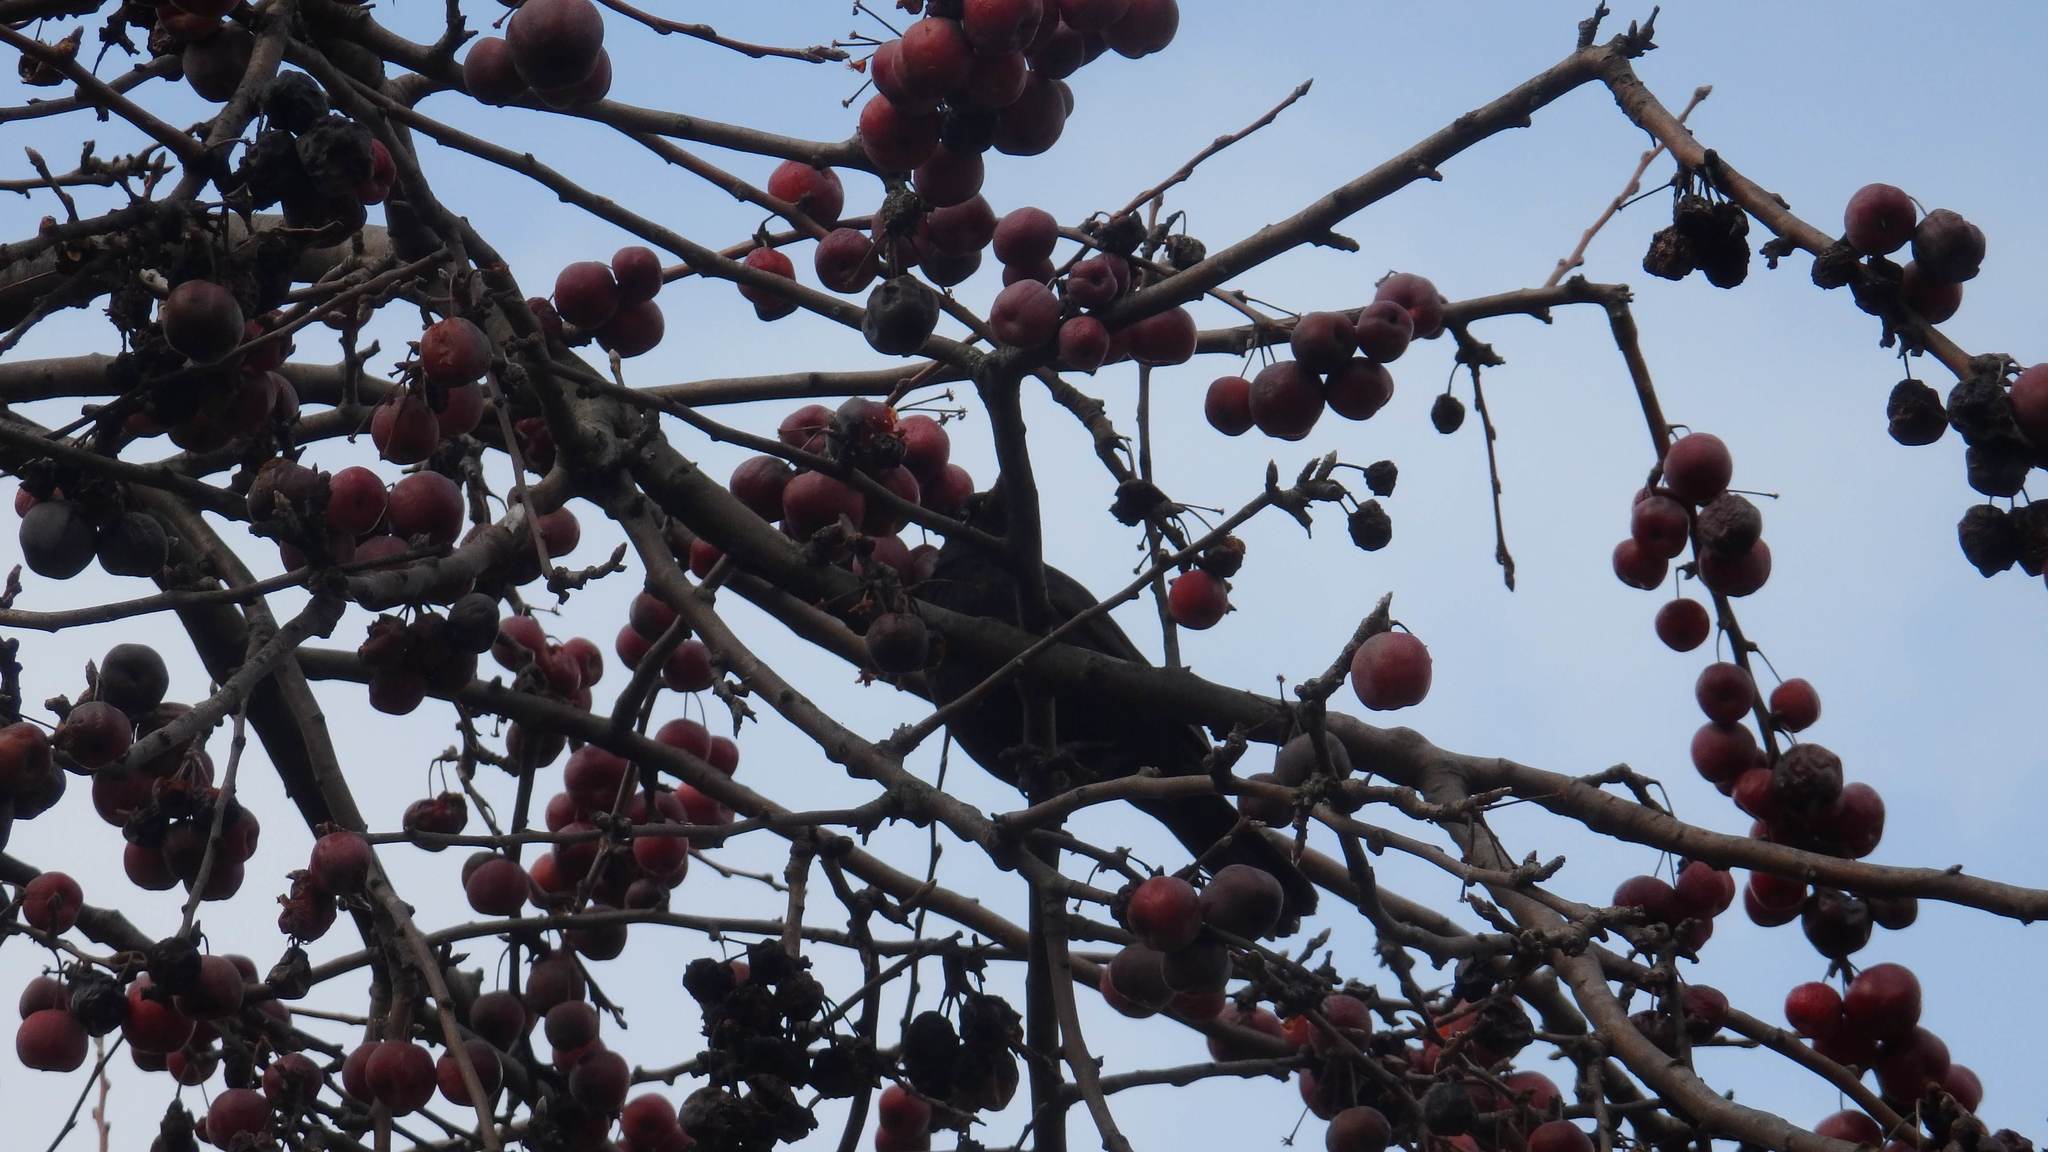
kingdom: Animalia
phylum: Chordata
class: Aves
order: Passeriformes
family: Turdidae
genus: Turdus
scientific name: Turdus merula
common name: Common blackbird
